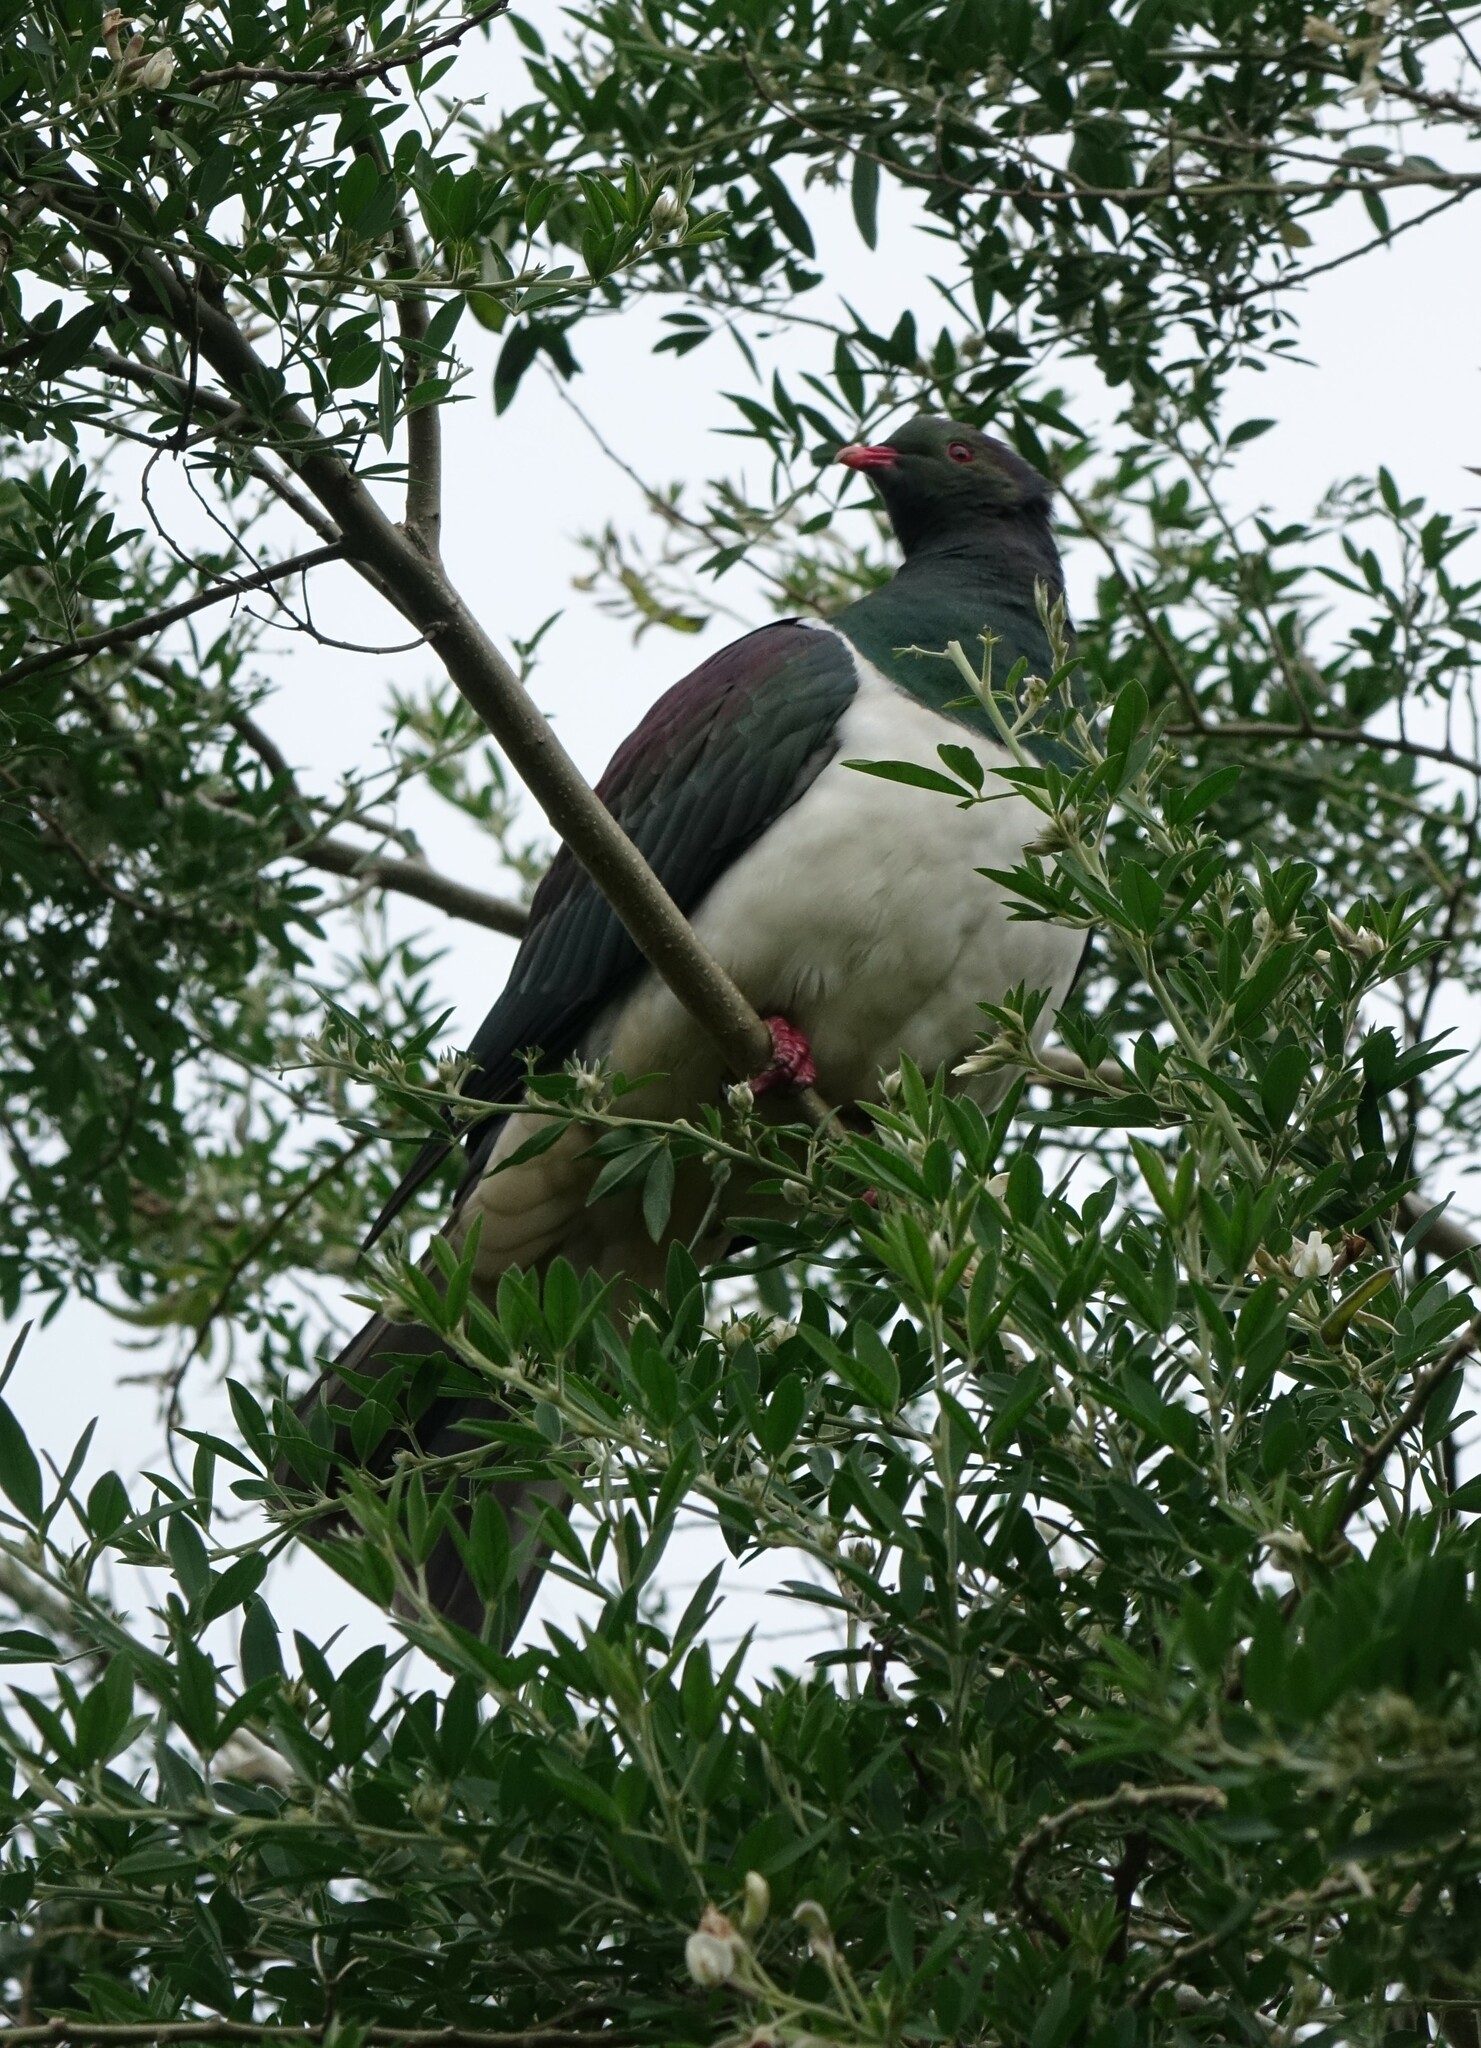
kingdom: Animalia
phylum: Chordata
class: Aves
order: Columbiformes
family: Columbidae
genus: Hemiphaga
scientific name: Hemiphaga novaeseelandiae
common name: New zealand pigeon
